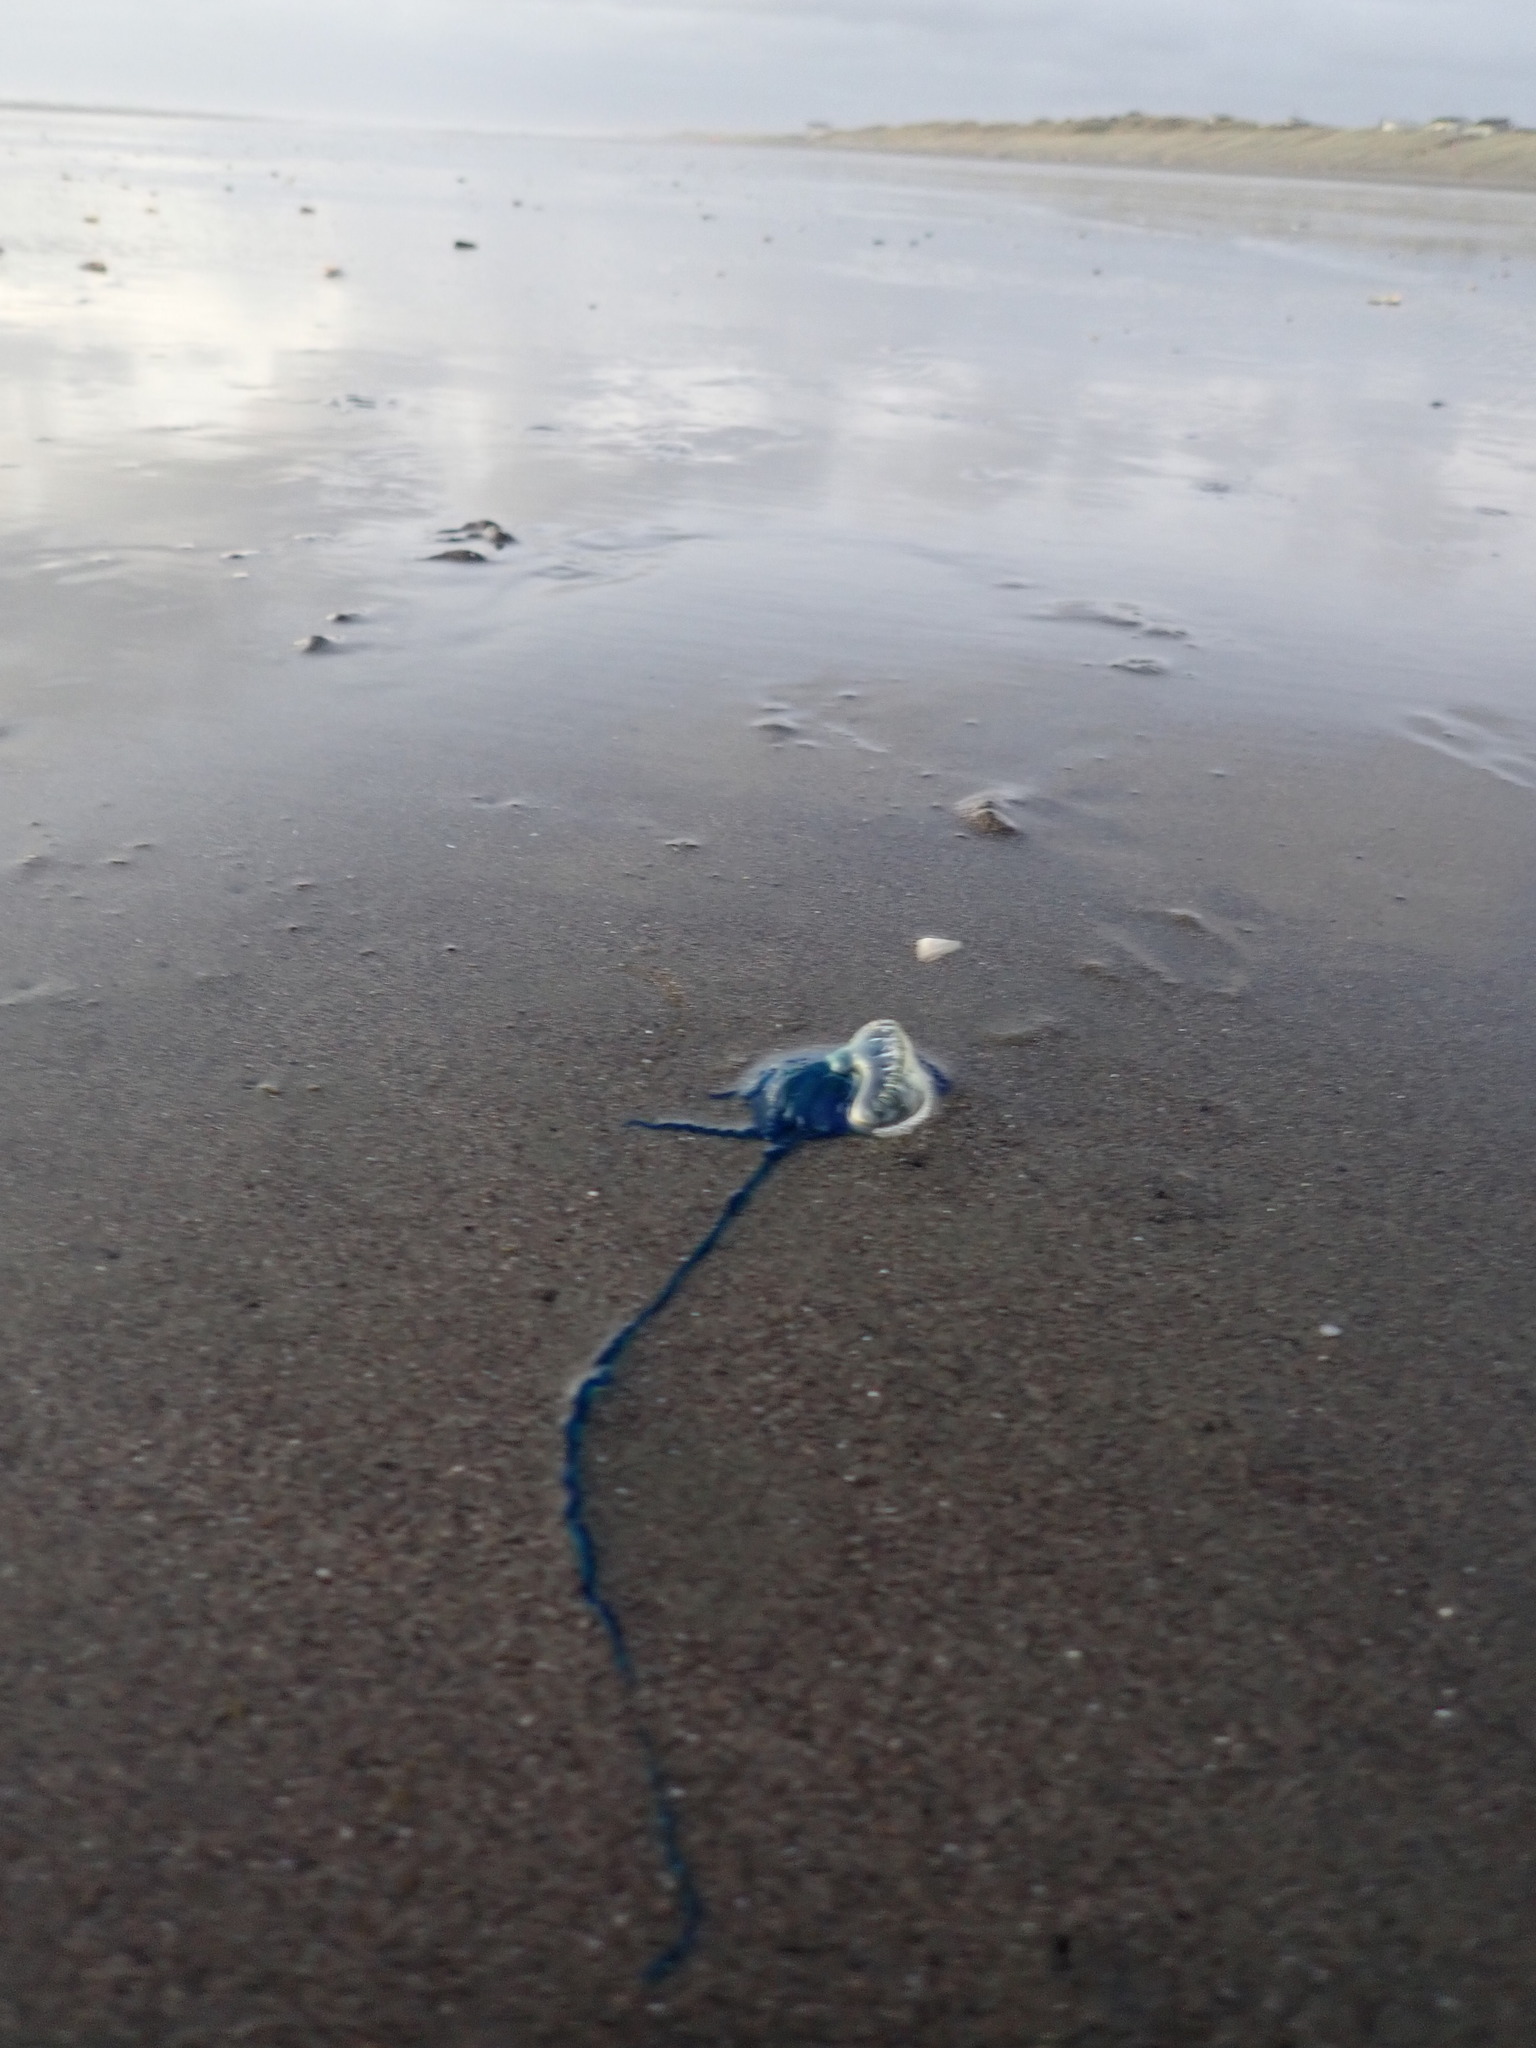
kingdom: Animalia
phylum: Cnidaria
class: Hydrozoa
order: Siphonophorae
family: Physaliidae
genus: Physalia
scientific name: Physalia physalis
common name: Portuguese man-of-war
